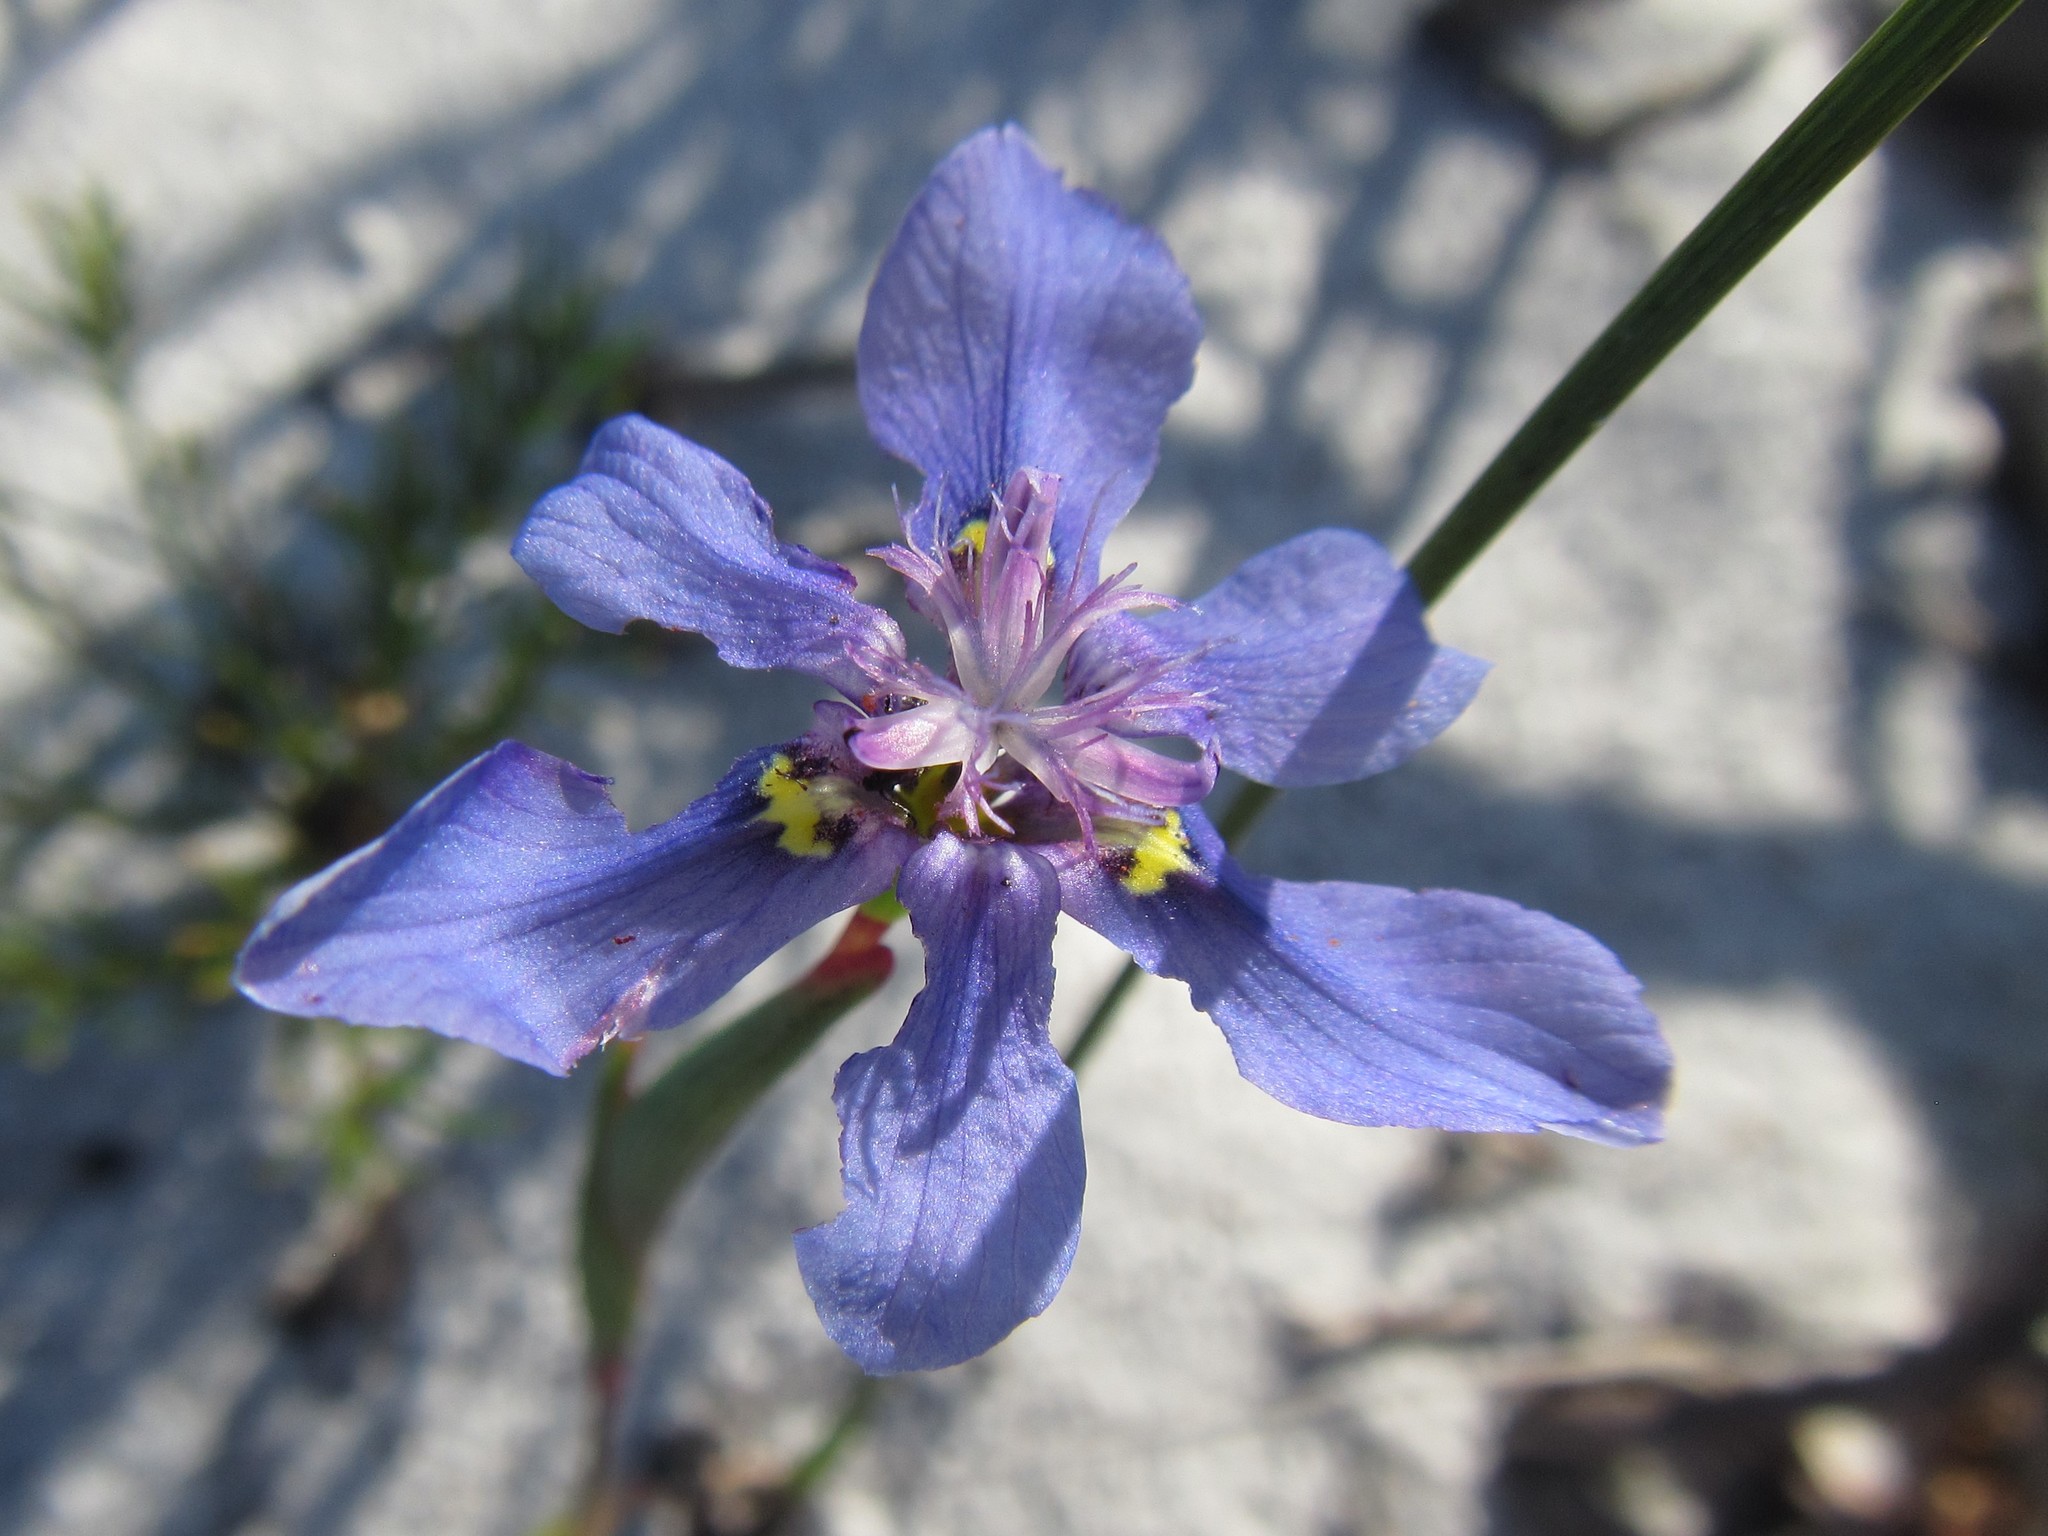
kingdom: Plantae
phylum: Tracheophyta
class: Liliopsida
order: Asparagales
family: Iridaceae
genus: Moraea
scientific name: Moraea lugubris
